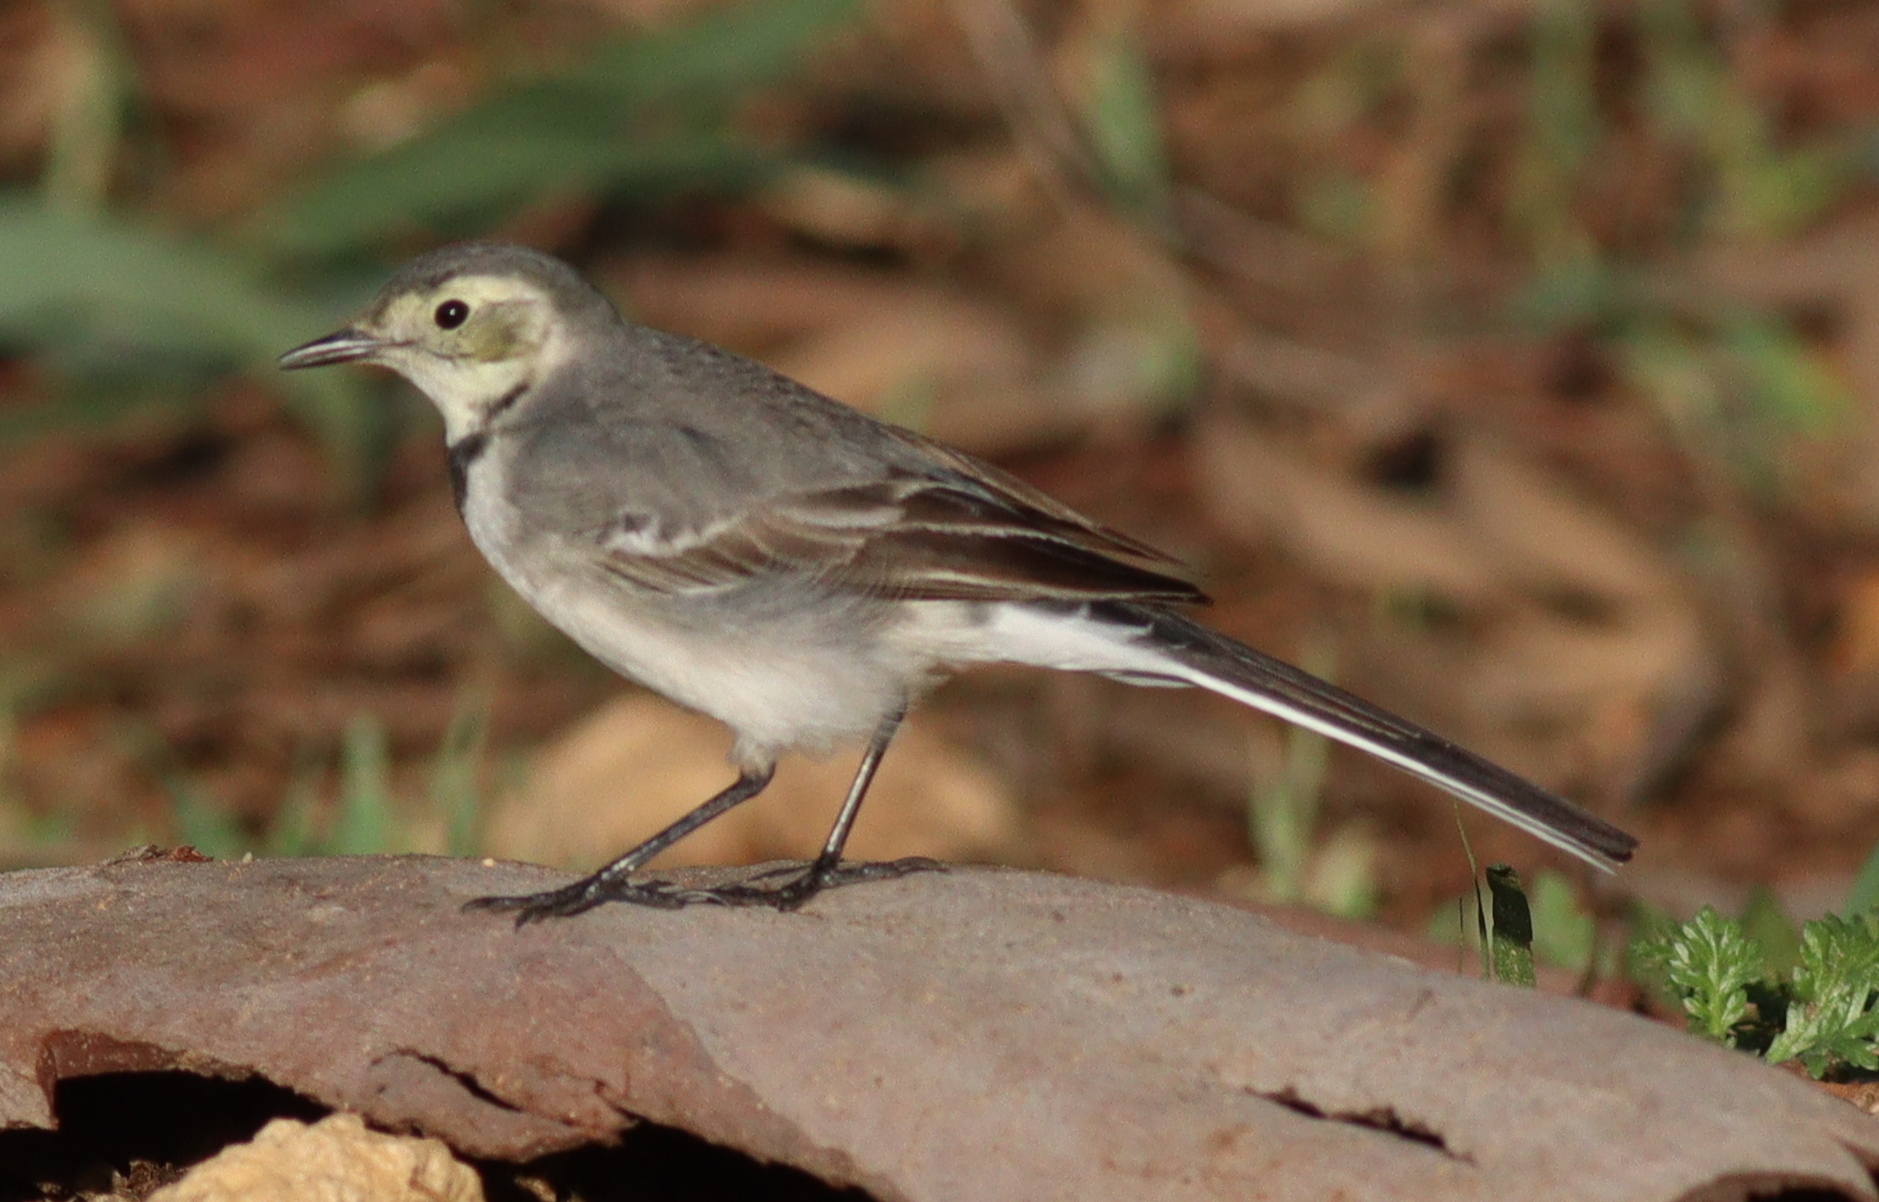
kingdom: Animalia
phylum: Chordata
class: Aves
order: Passeriformes
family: Motacillidae
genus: Motacilla
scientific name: Motacilla alba
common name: White wagtail
